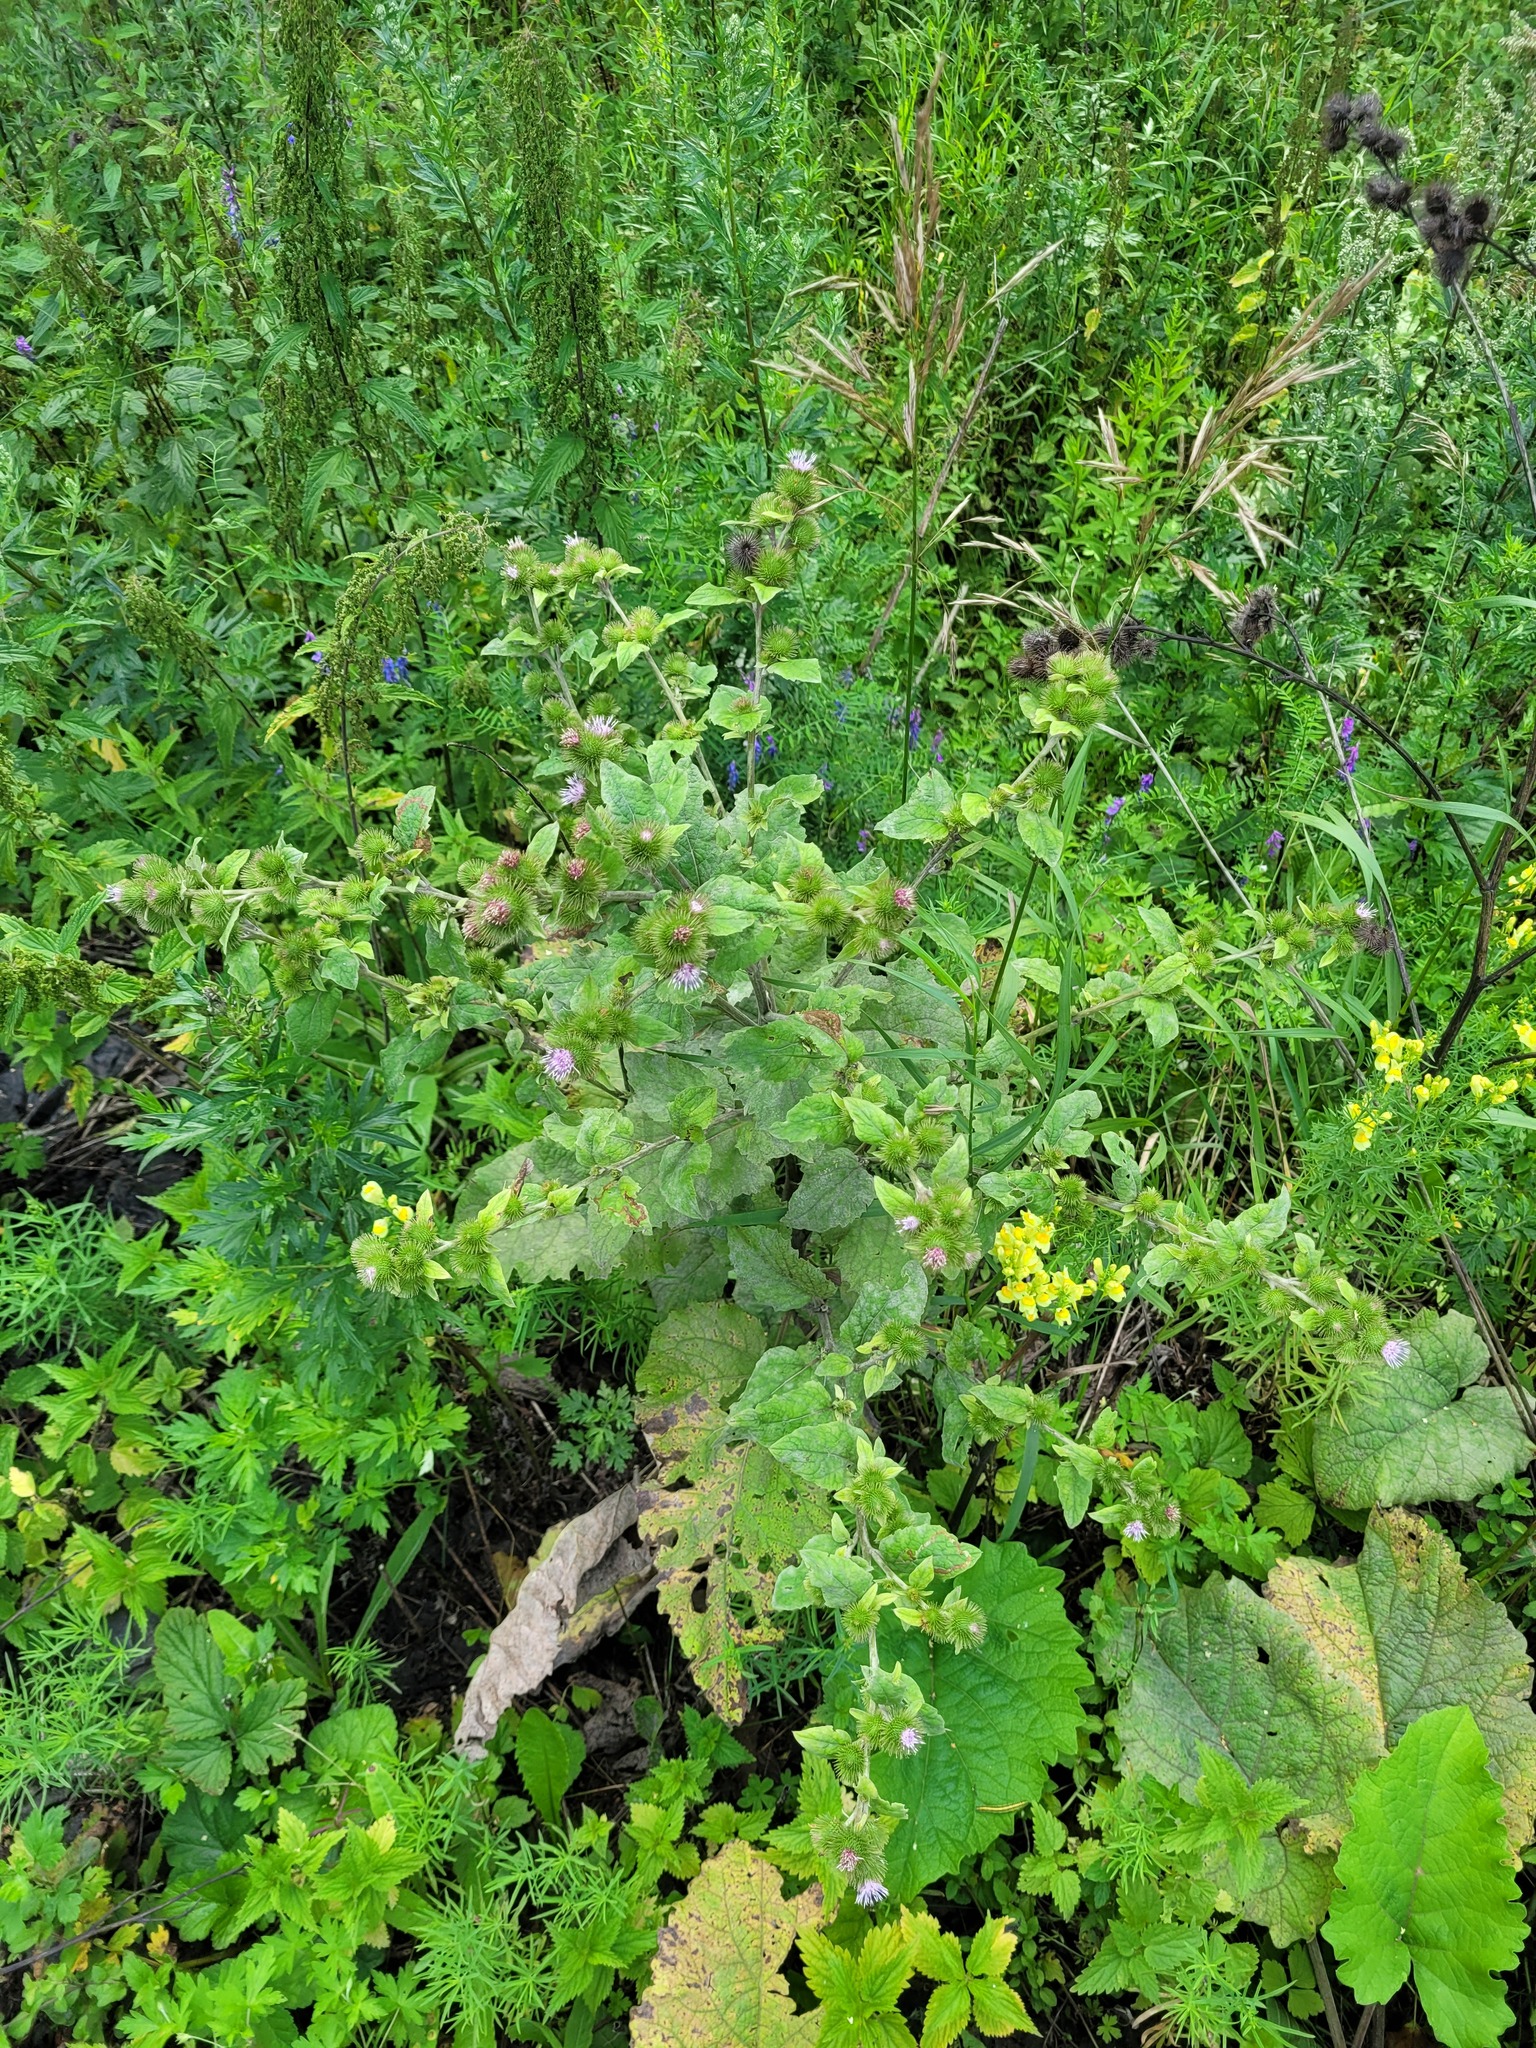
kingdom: Plantae
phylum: Tracheophyta
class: Magnoliopsida
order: Asterales
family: Asteraceae
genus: Arctium
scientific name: Arctium minus
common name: Lesser burdock
